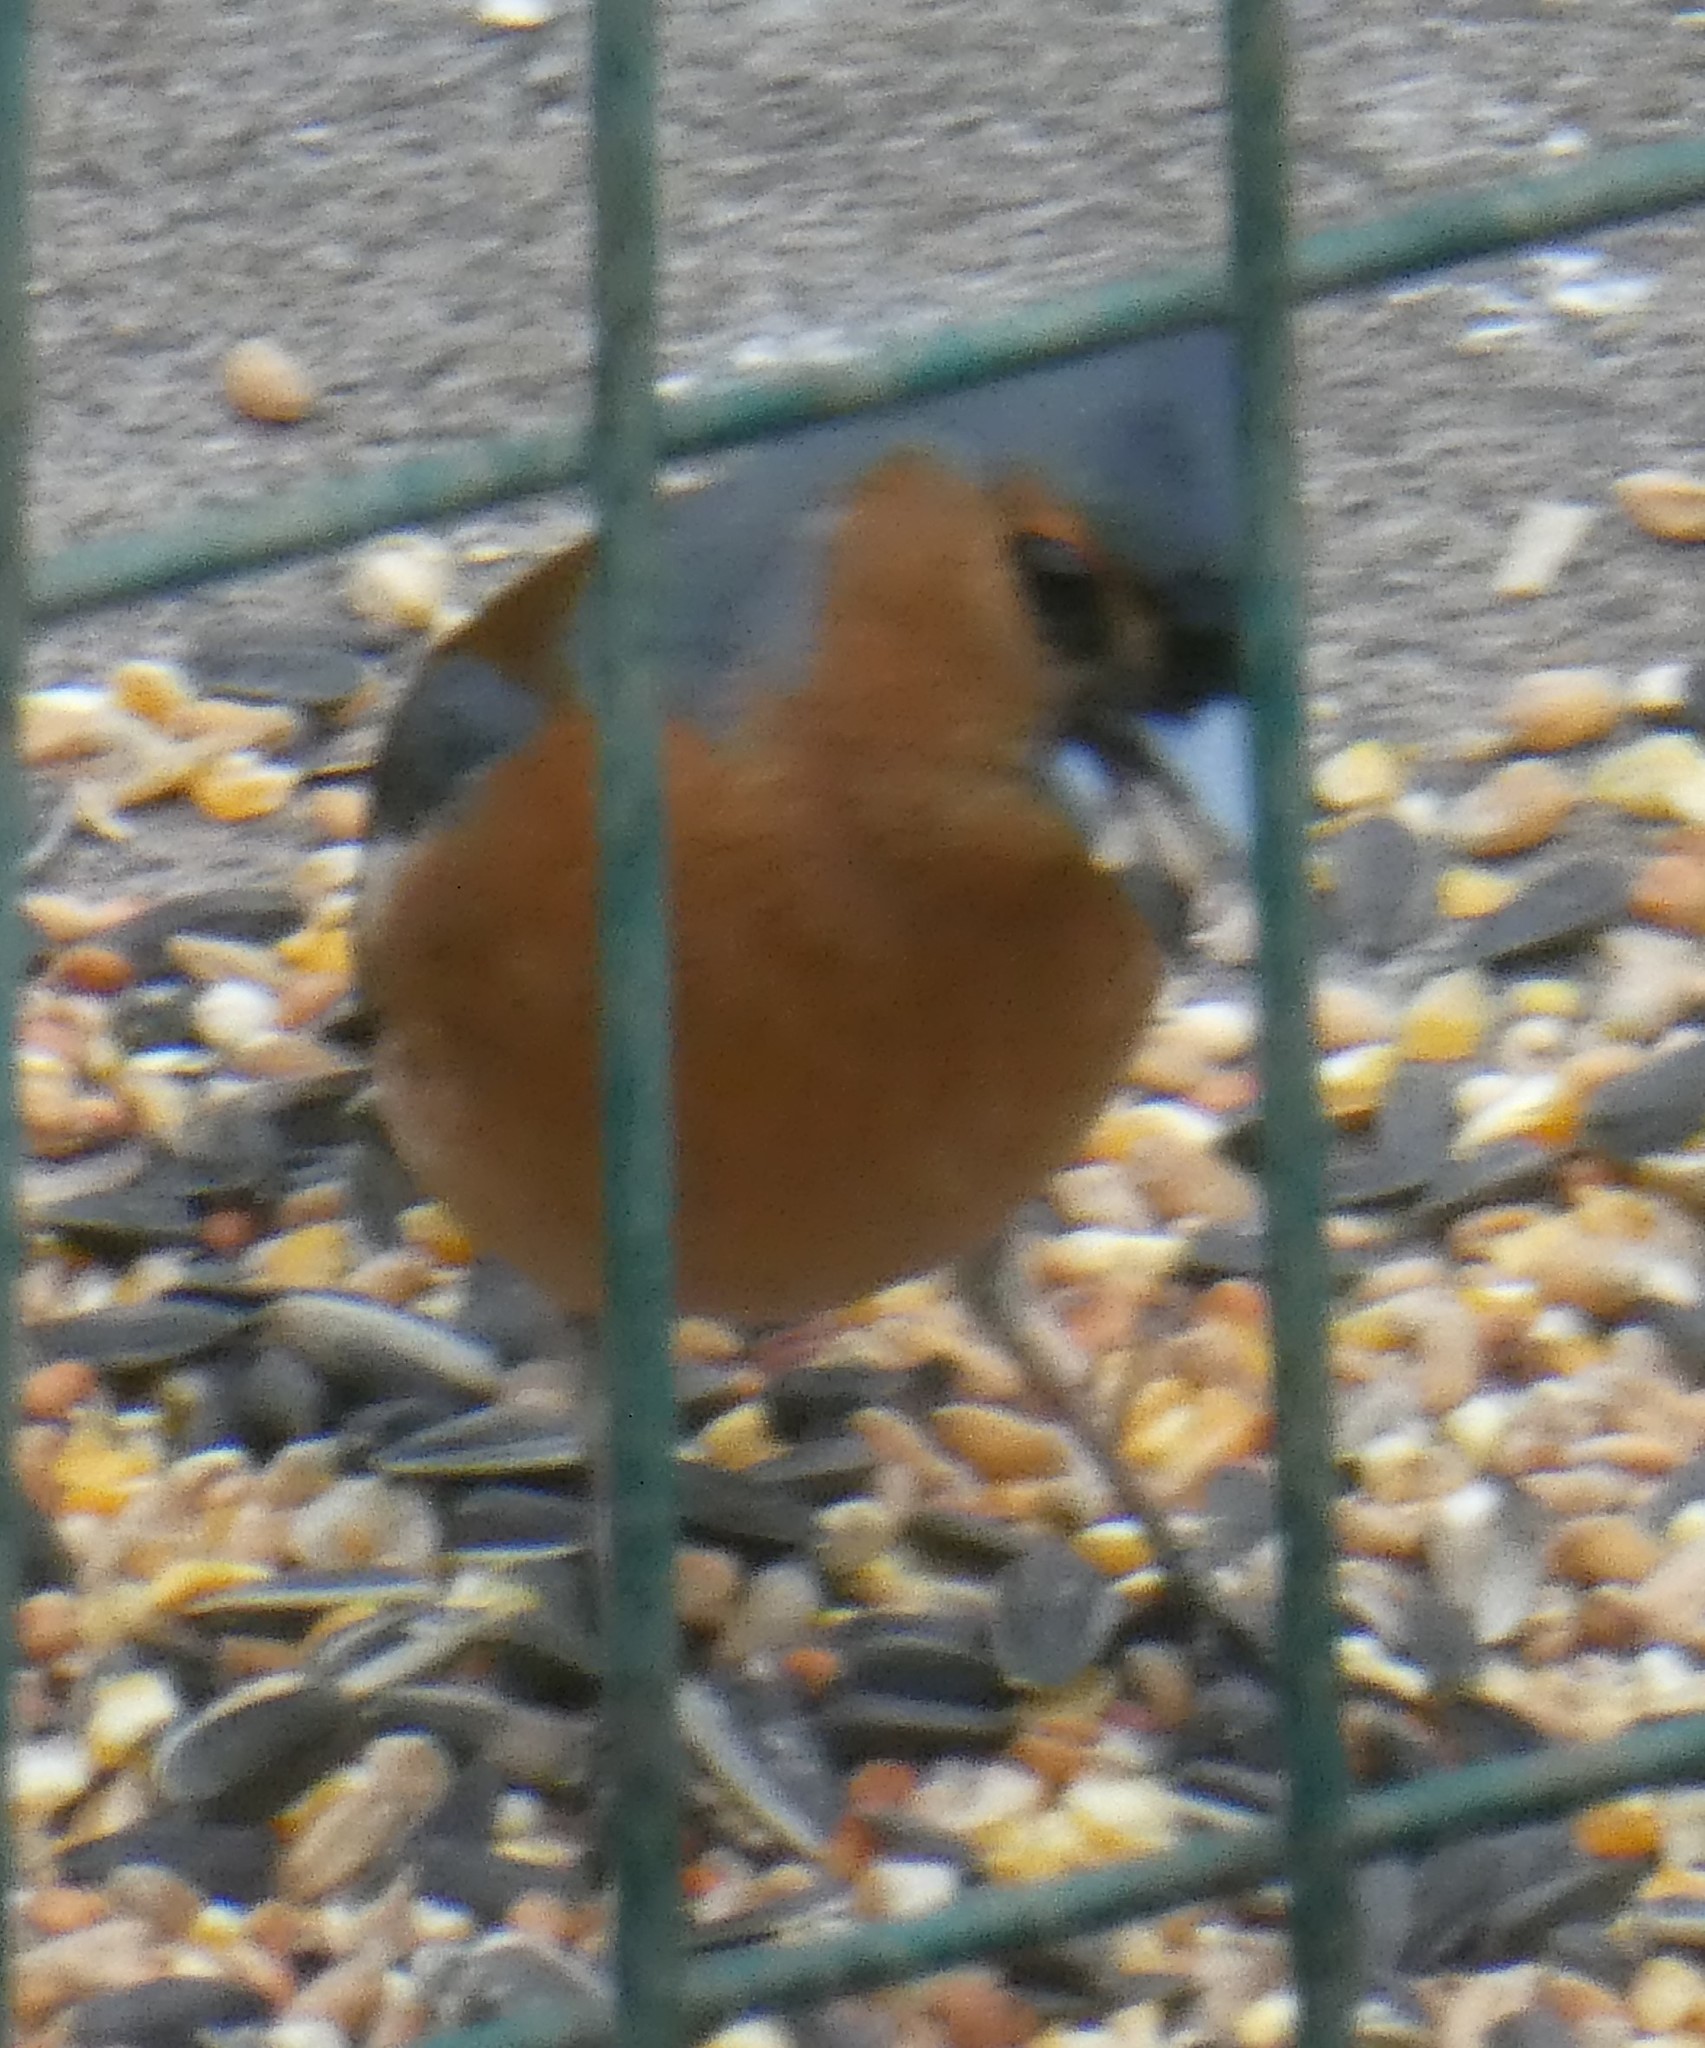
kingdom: Animalia
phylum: Chordata
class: Aves
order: Passeriformes
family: Fringillidae
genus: Fringilla
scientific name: Fringilla coelebs
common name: Common chaffinch
